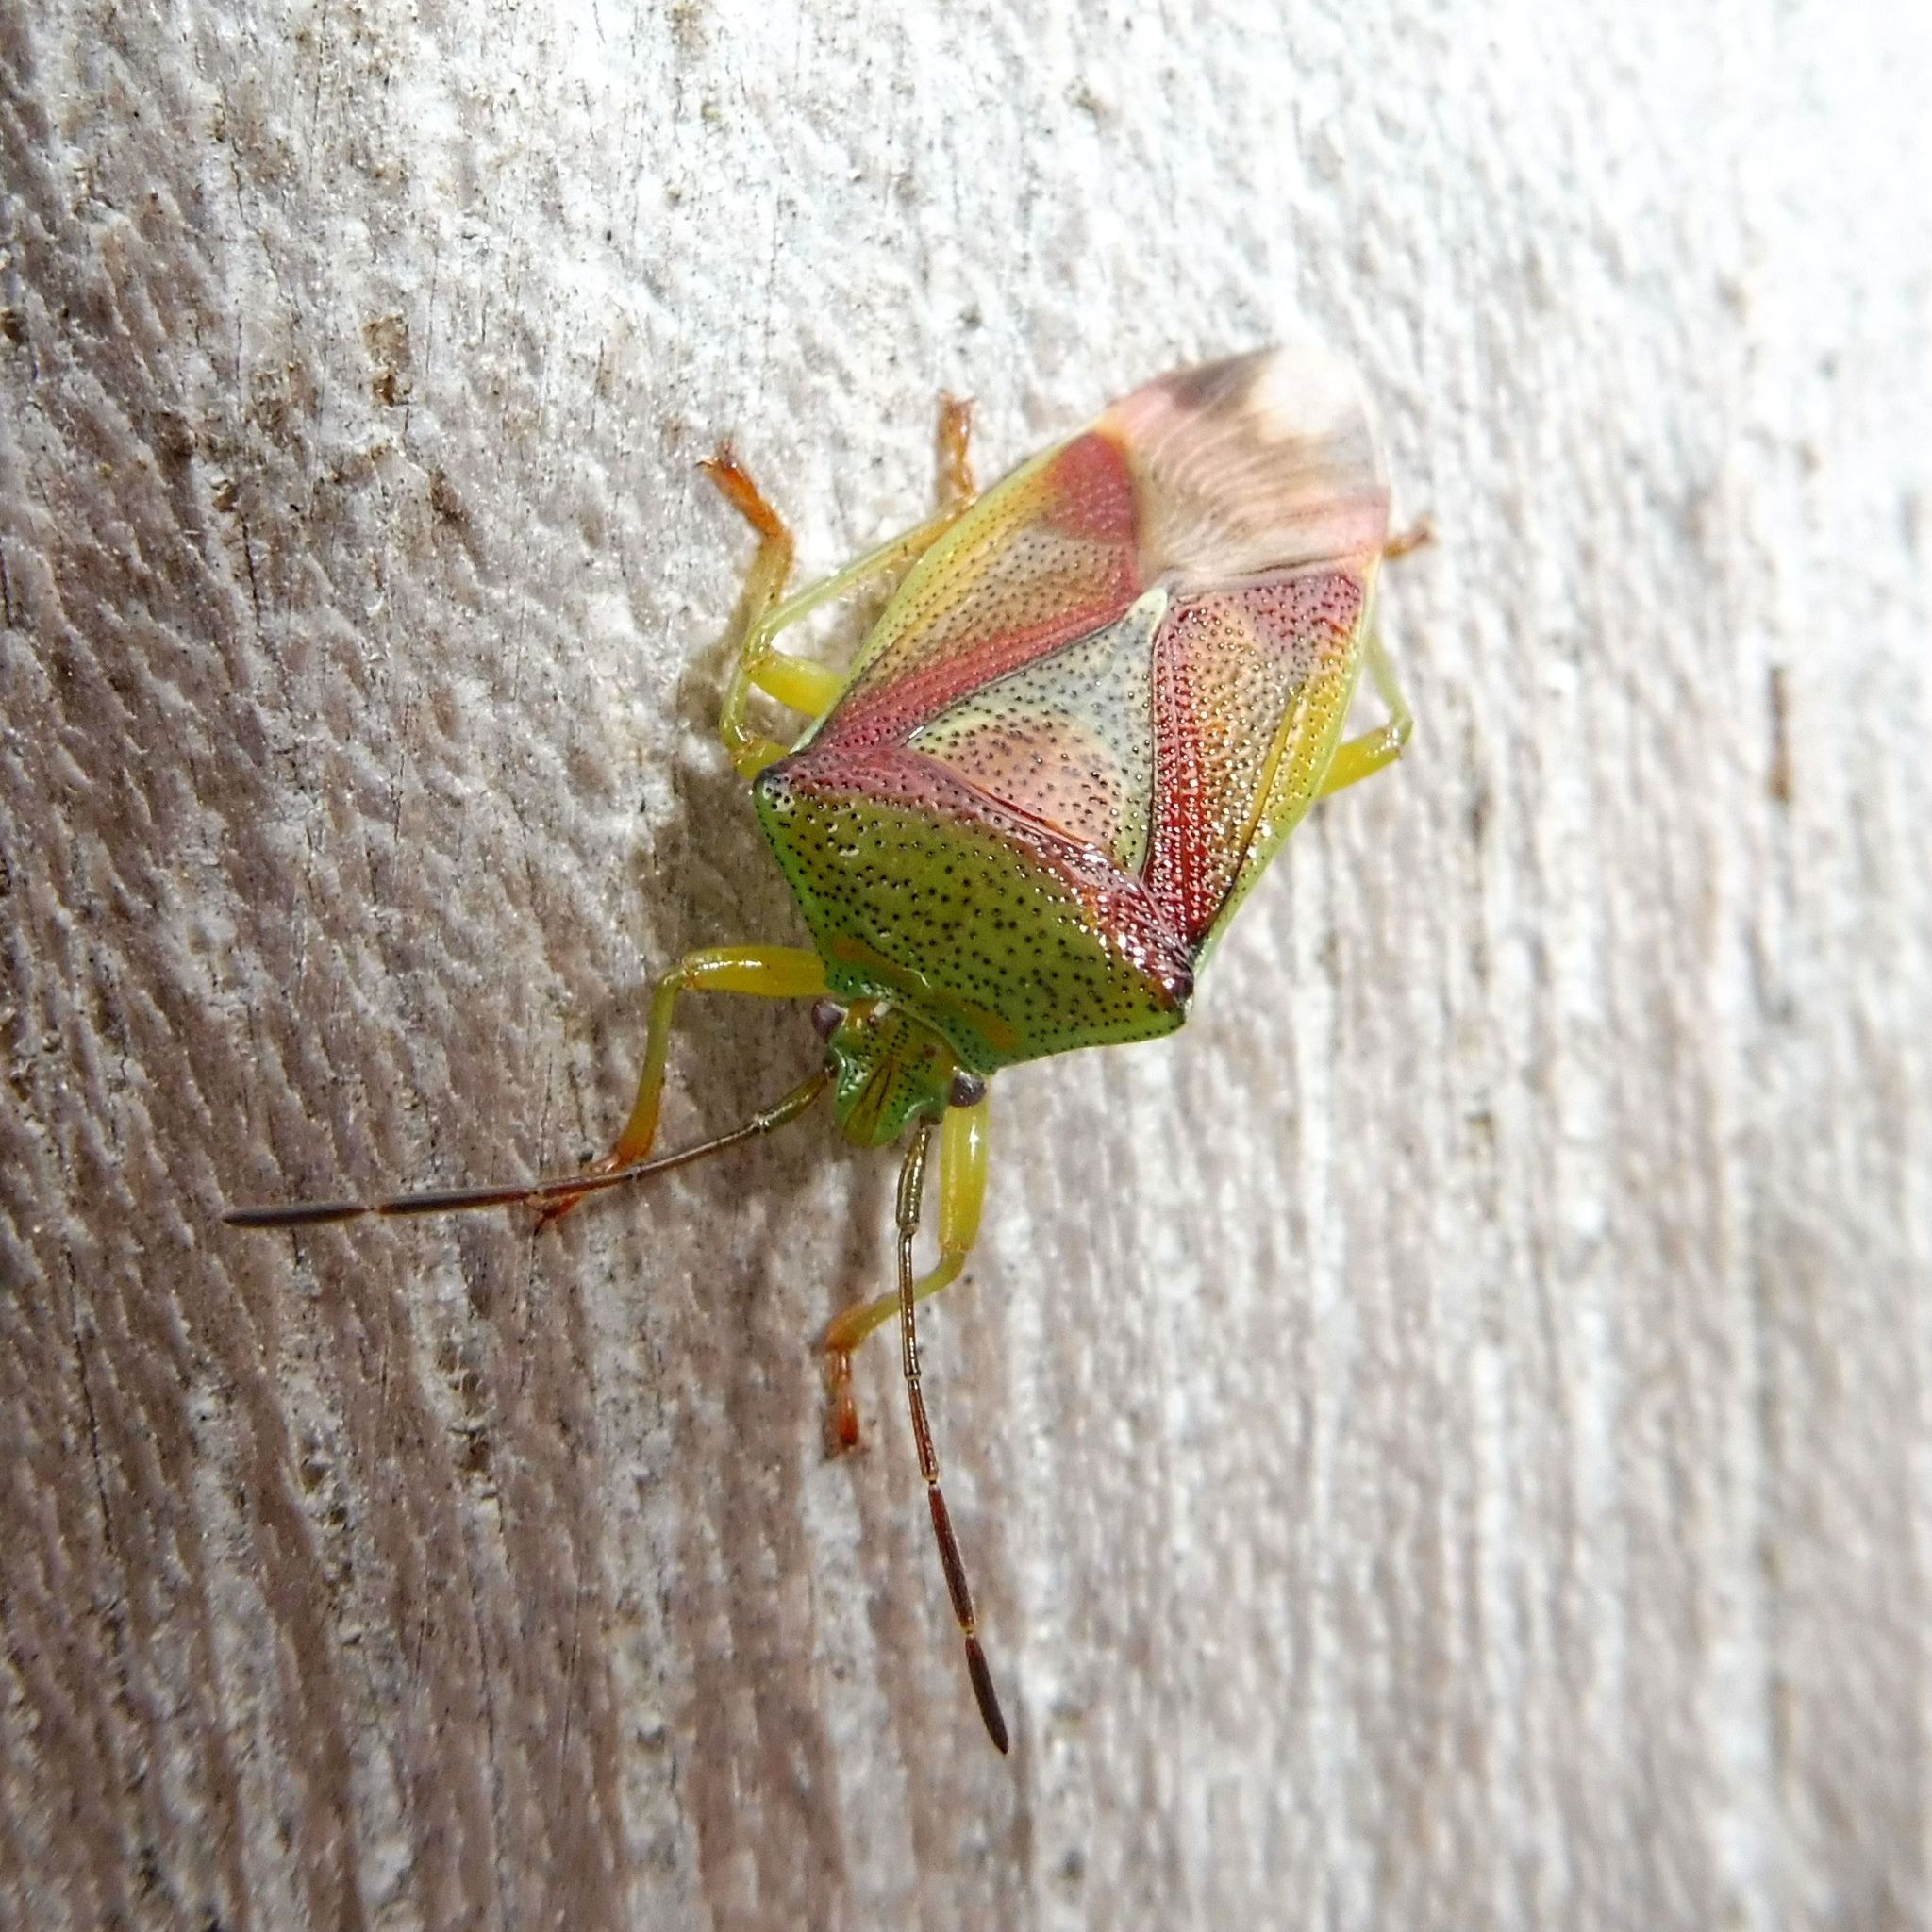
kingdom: Animalia
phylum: Arthropoda
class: Insecta
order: Hemiptera
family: Acanthosomatidae
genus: Elasmostethus
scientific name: Elasmostethus interstinctus
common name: Birch shieldbug
